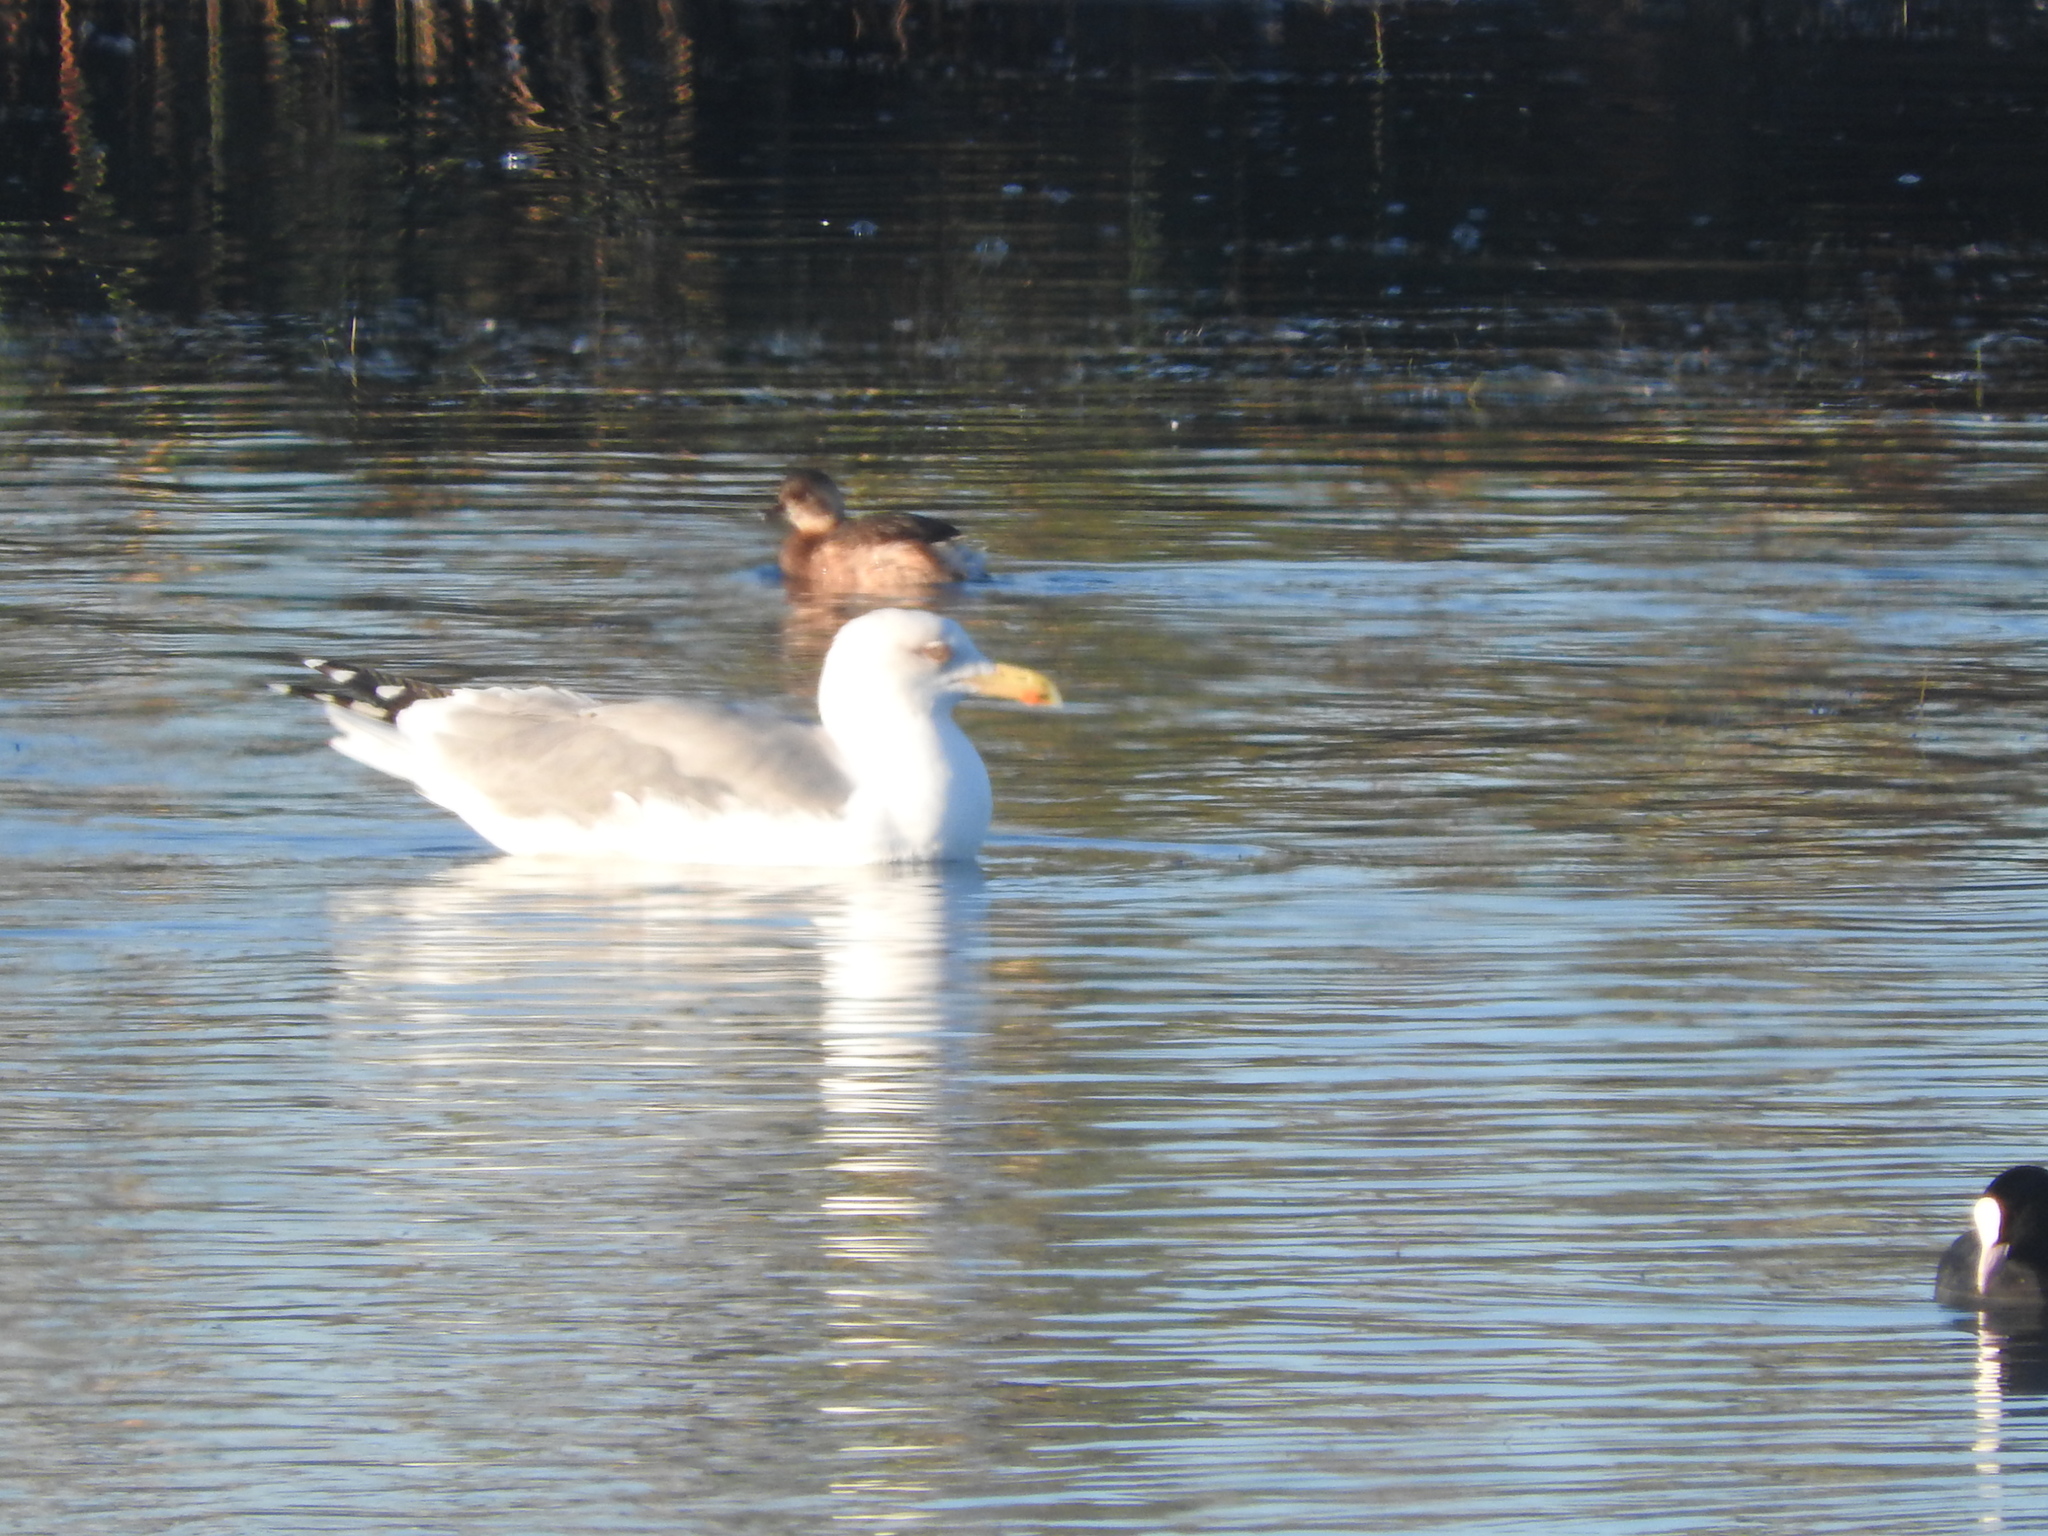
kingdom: Animalia
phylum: Chordata
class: Aves
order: Charadriiformes
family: Laridae
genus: Larus
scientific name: Larus michahellis
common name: Yellow-legged gull
